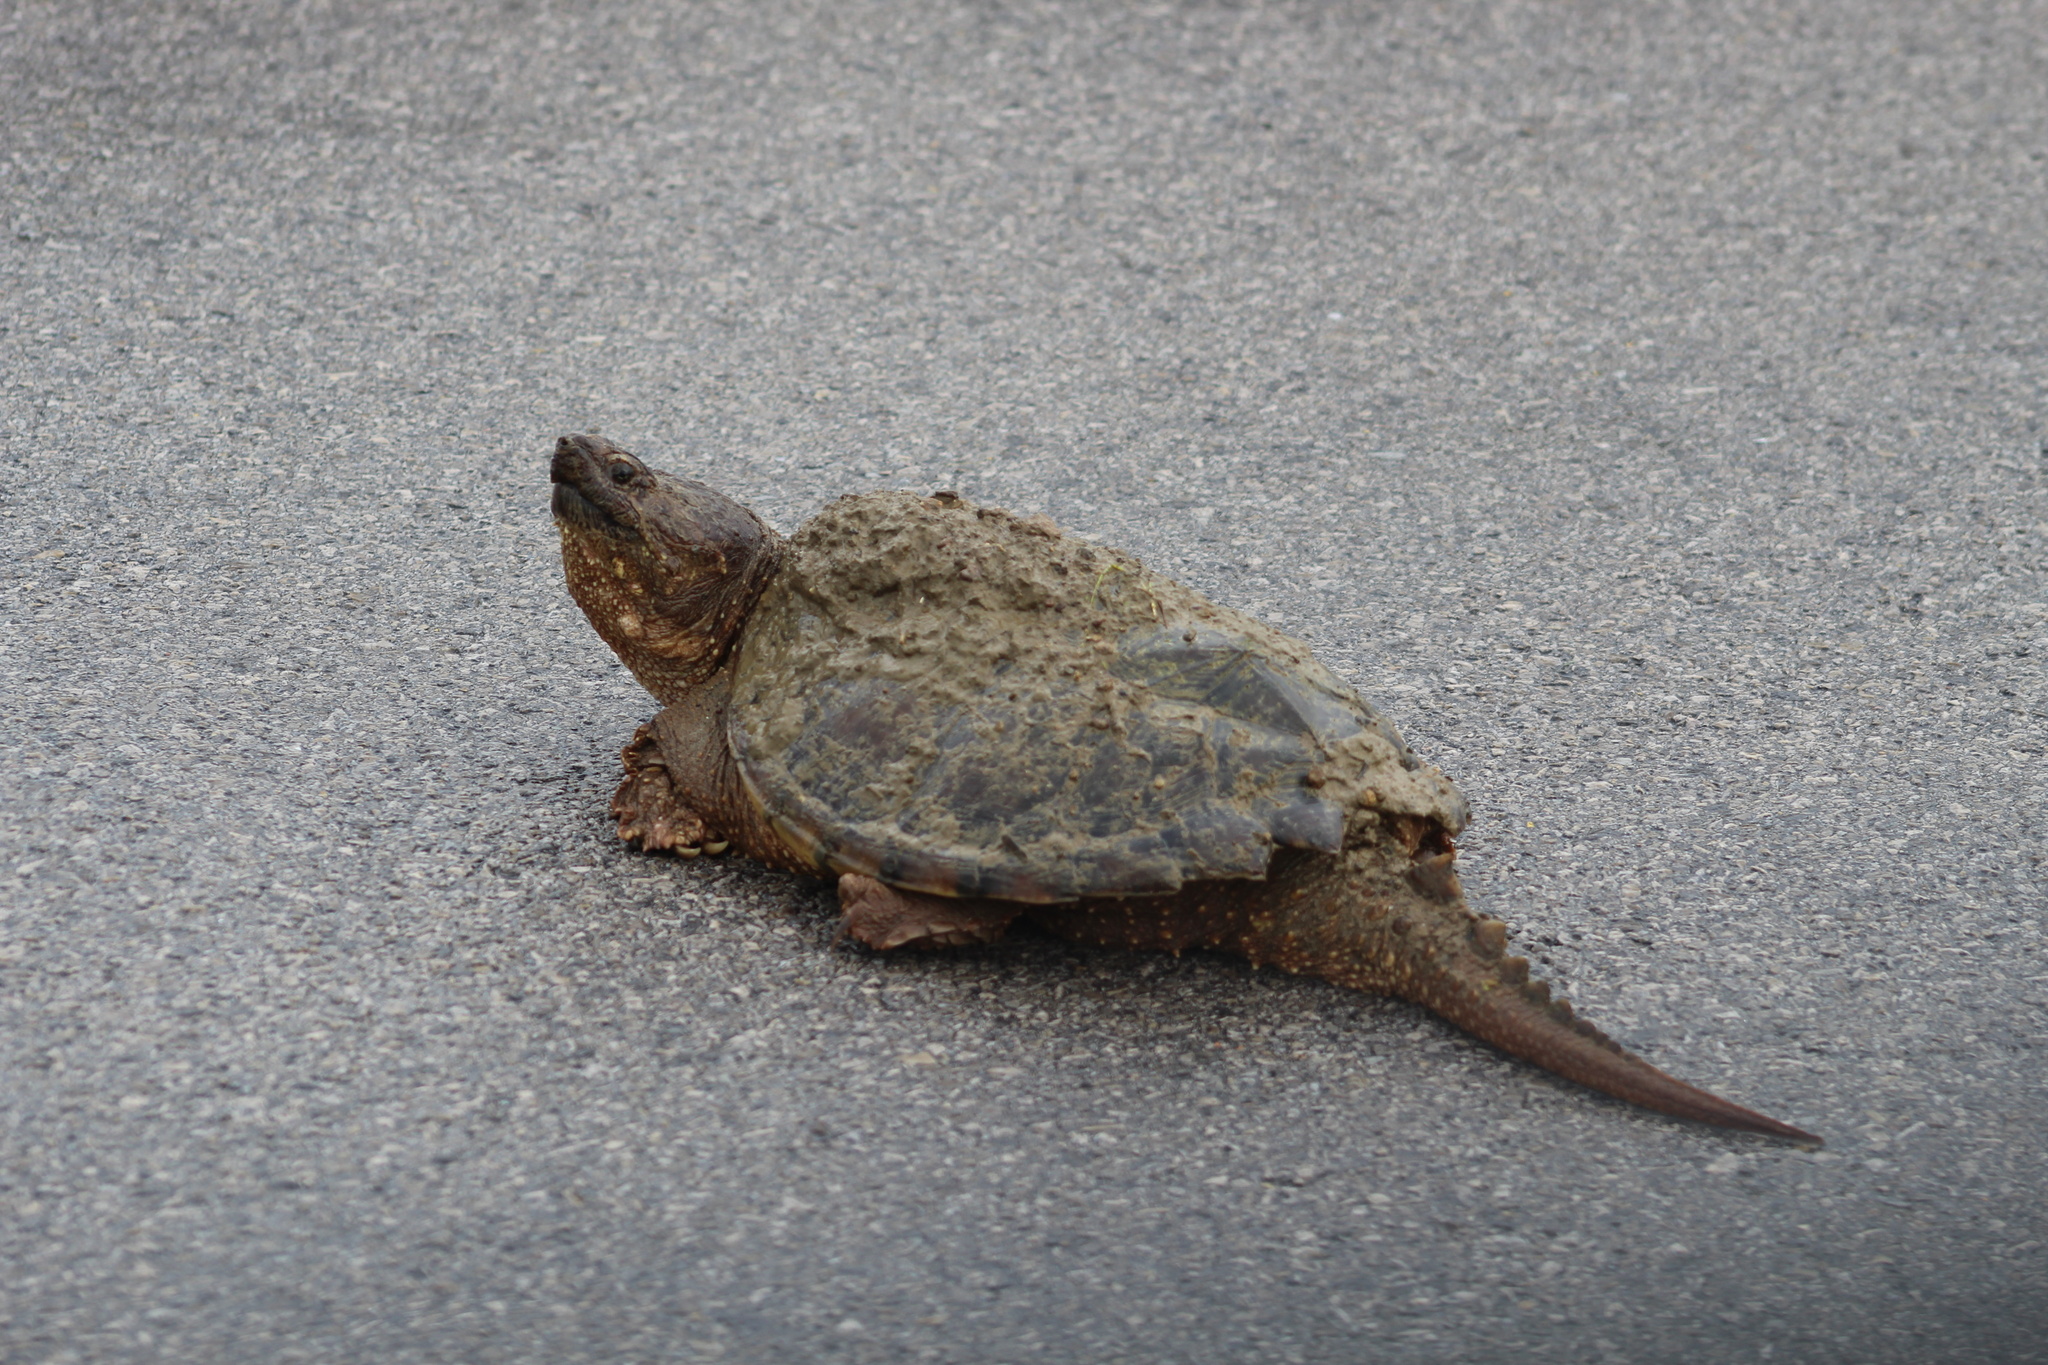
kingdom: Animalia
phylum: Chordata
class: Testudines
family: Chelydridae
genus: Chelydra
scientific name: Chelydra serpentina
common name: Common snapping turtle
